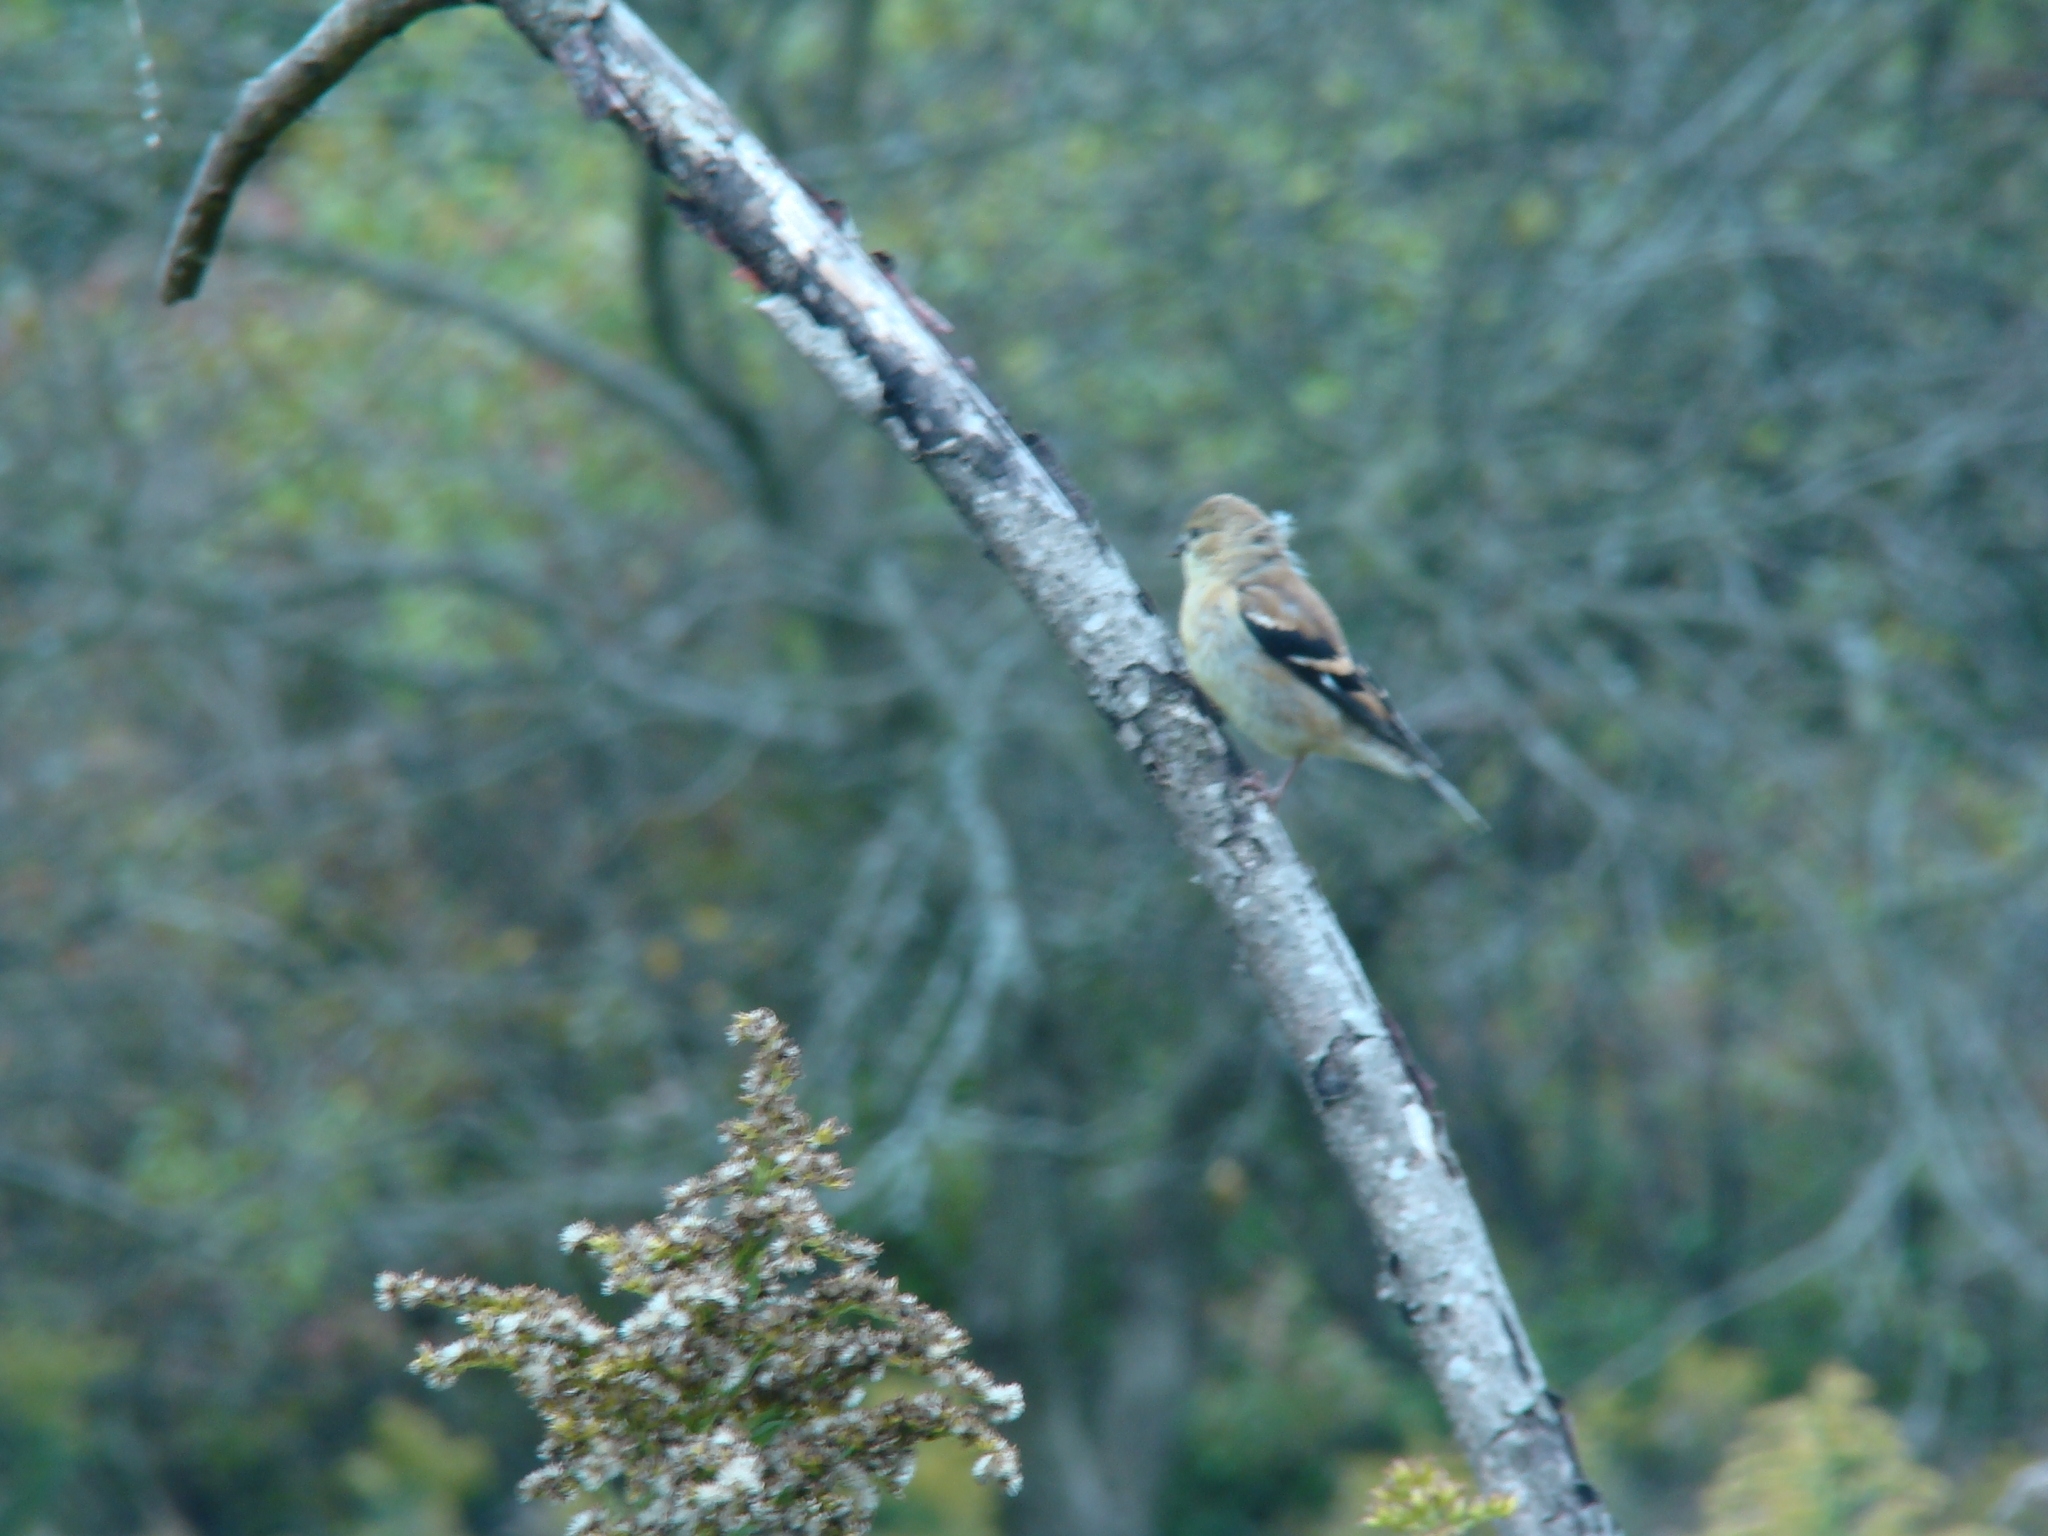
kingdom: Animalia
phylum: Chordata
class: Aves
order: Passeriformes
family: Fringillidae
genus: Spinus
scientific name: Spinus tristis
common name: American goldfinch
